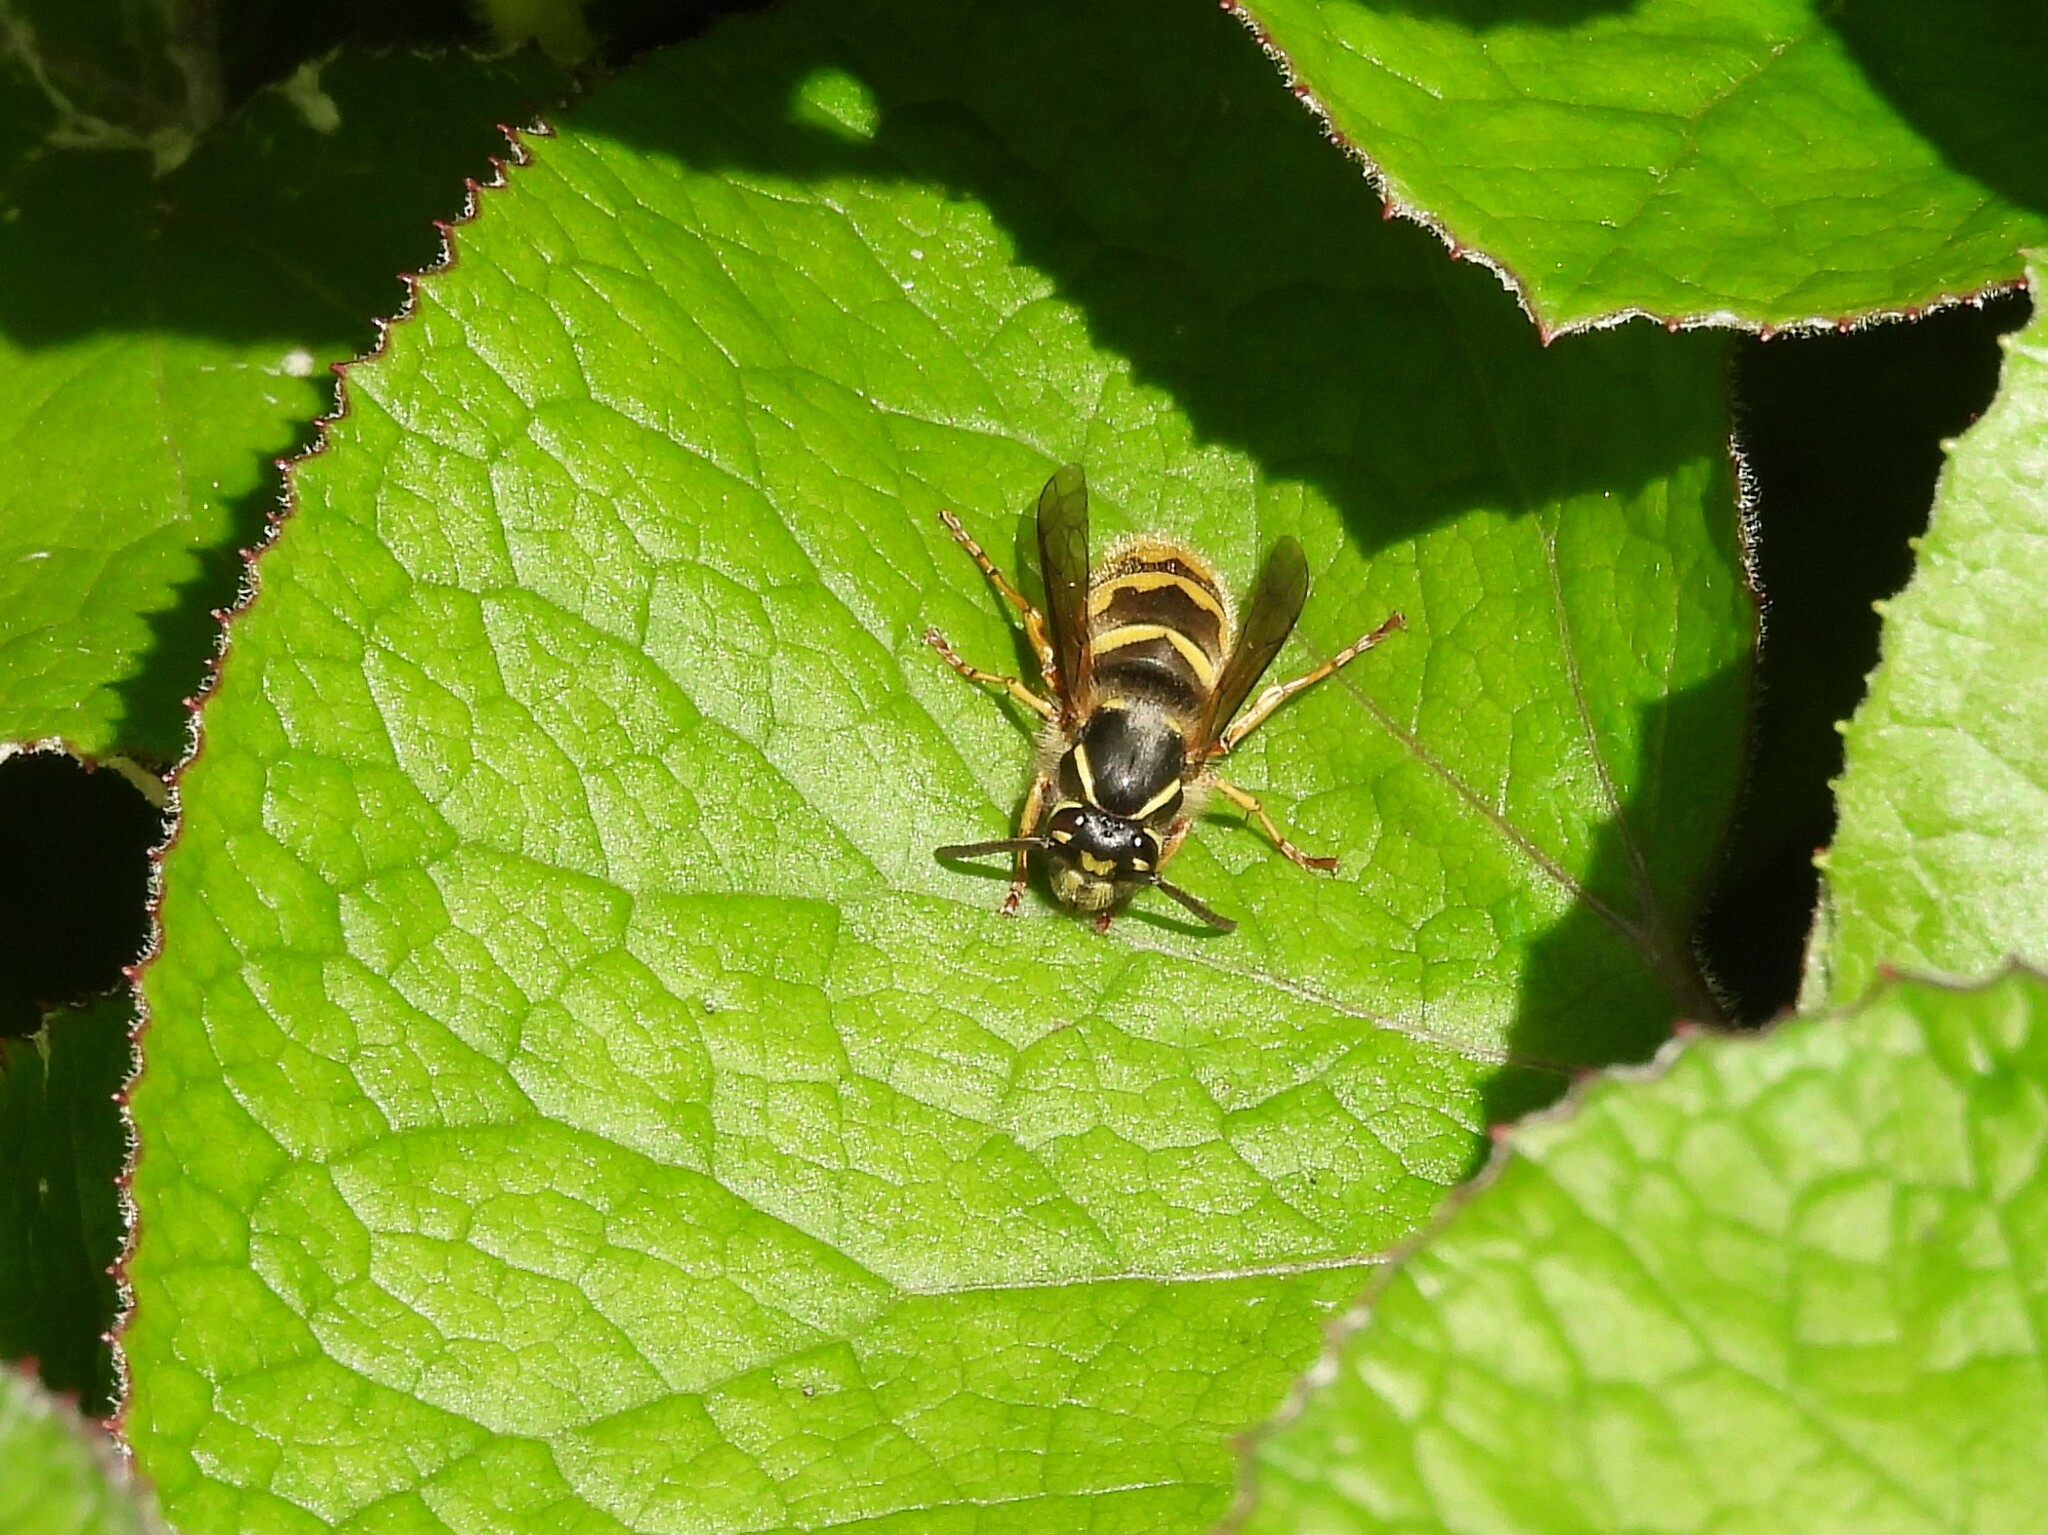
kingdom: Animalia
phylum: Arthropoda
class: Insecta
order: Hymenoptera
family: Vespidae
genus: Vespula
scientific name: Vespula vulgaris
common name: Common wasp
